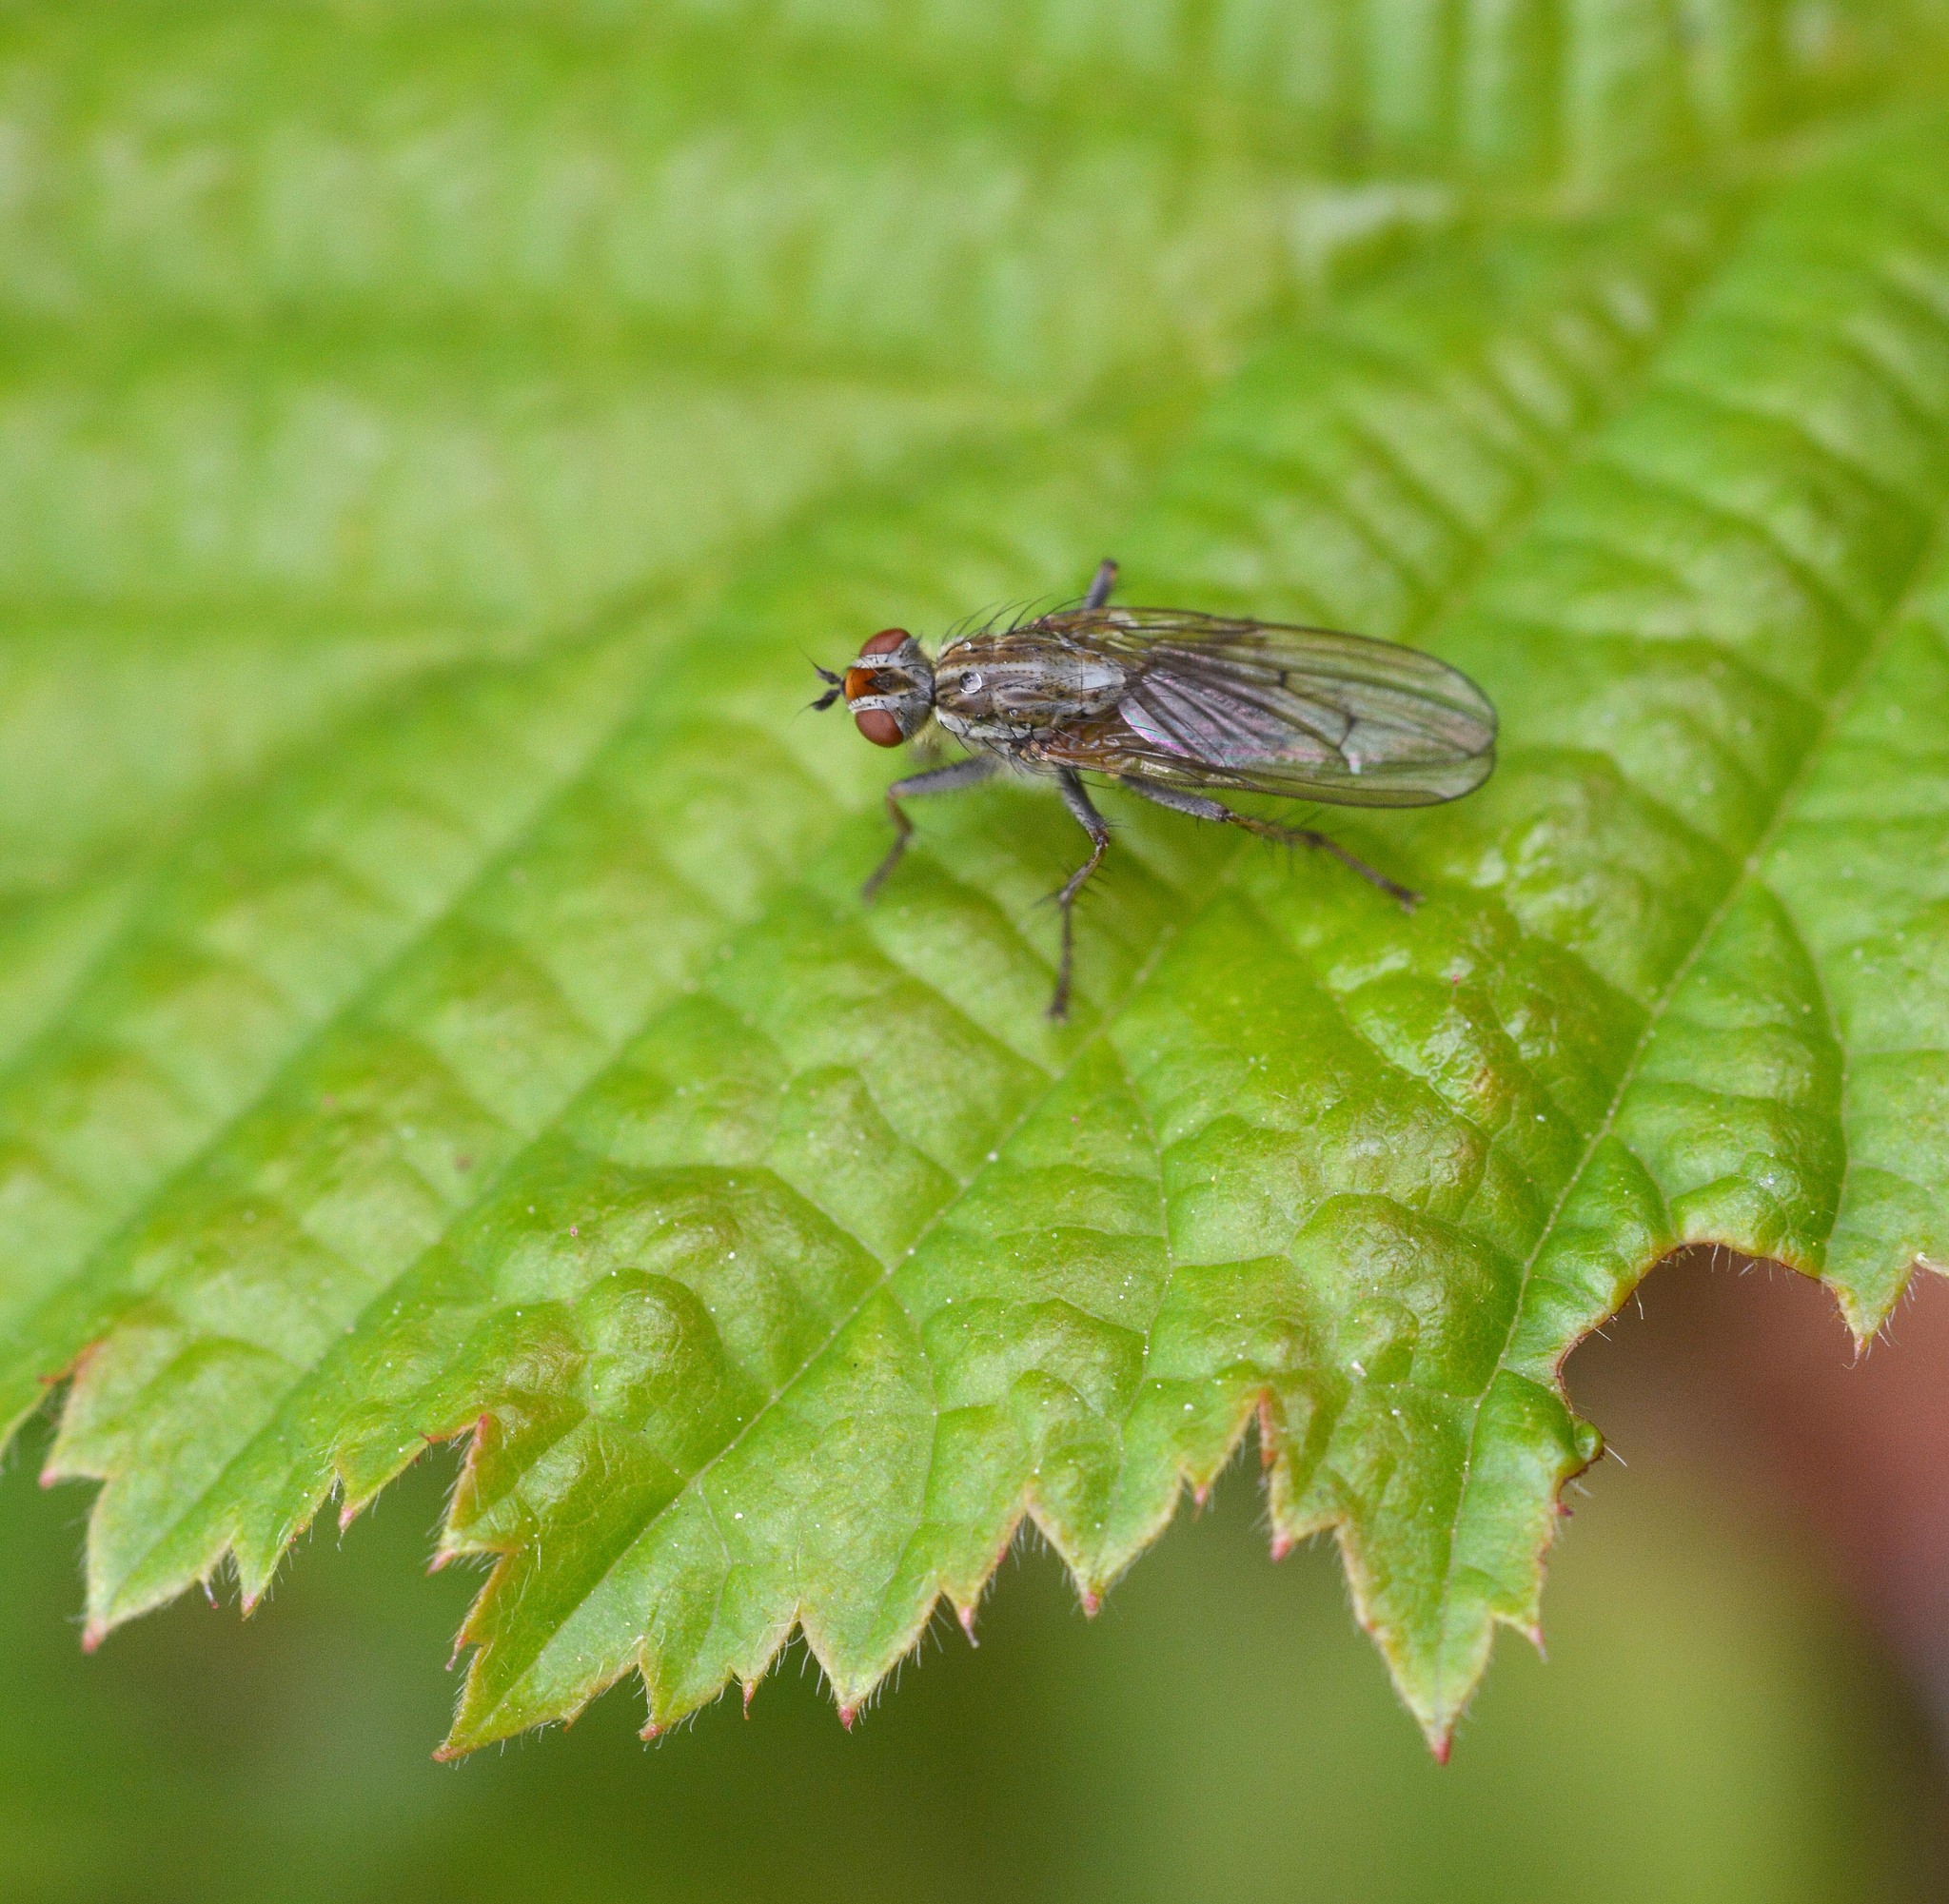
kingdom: Animalia
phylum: Arthropoda
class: Insecta
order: Diptera
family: Scathophagidae
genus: Scathophaga
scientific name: Scathophaga stercoraria
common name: Yellow dung fly
